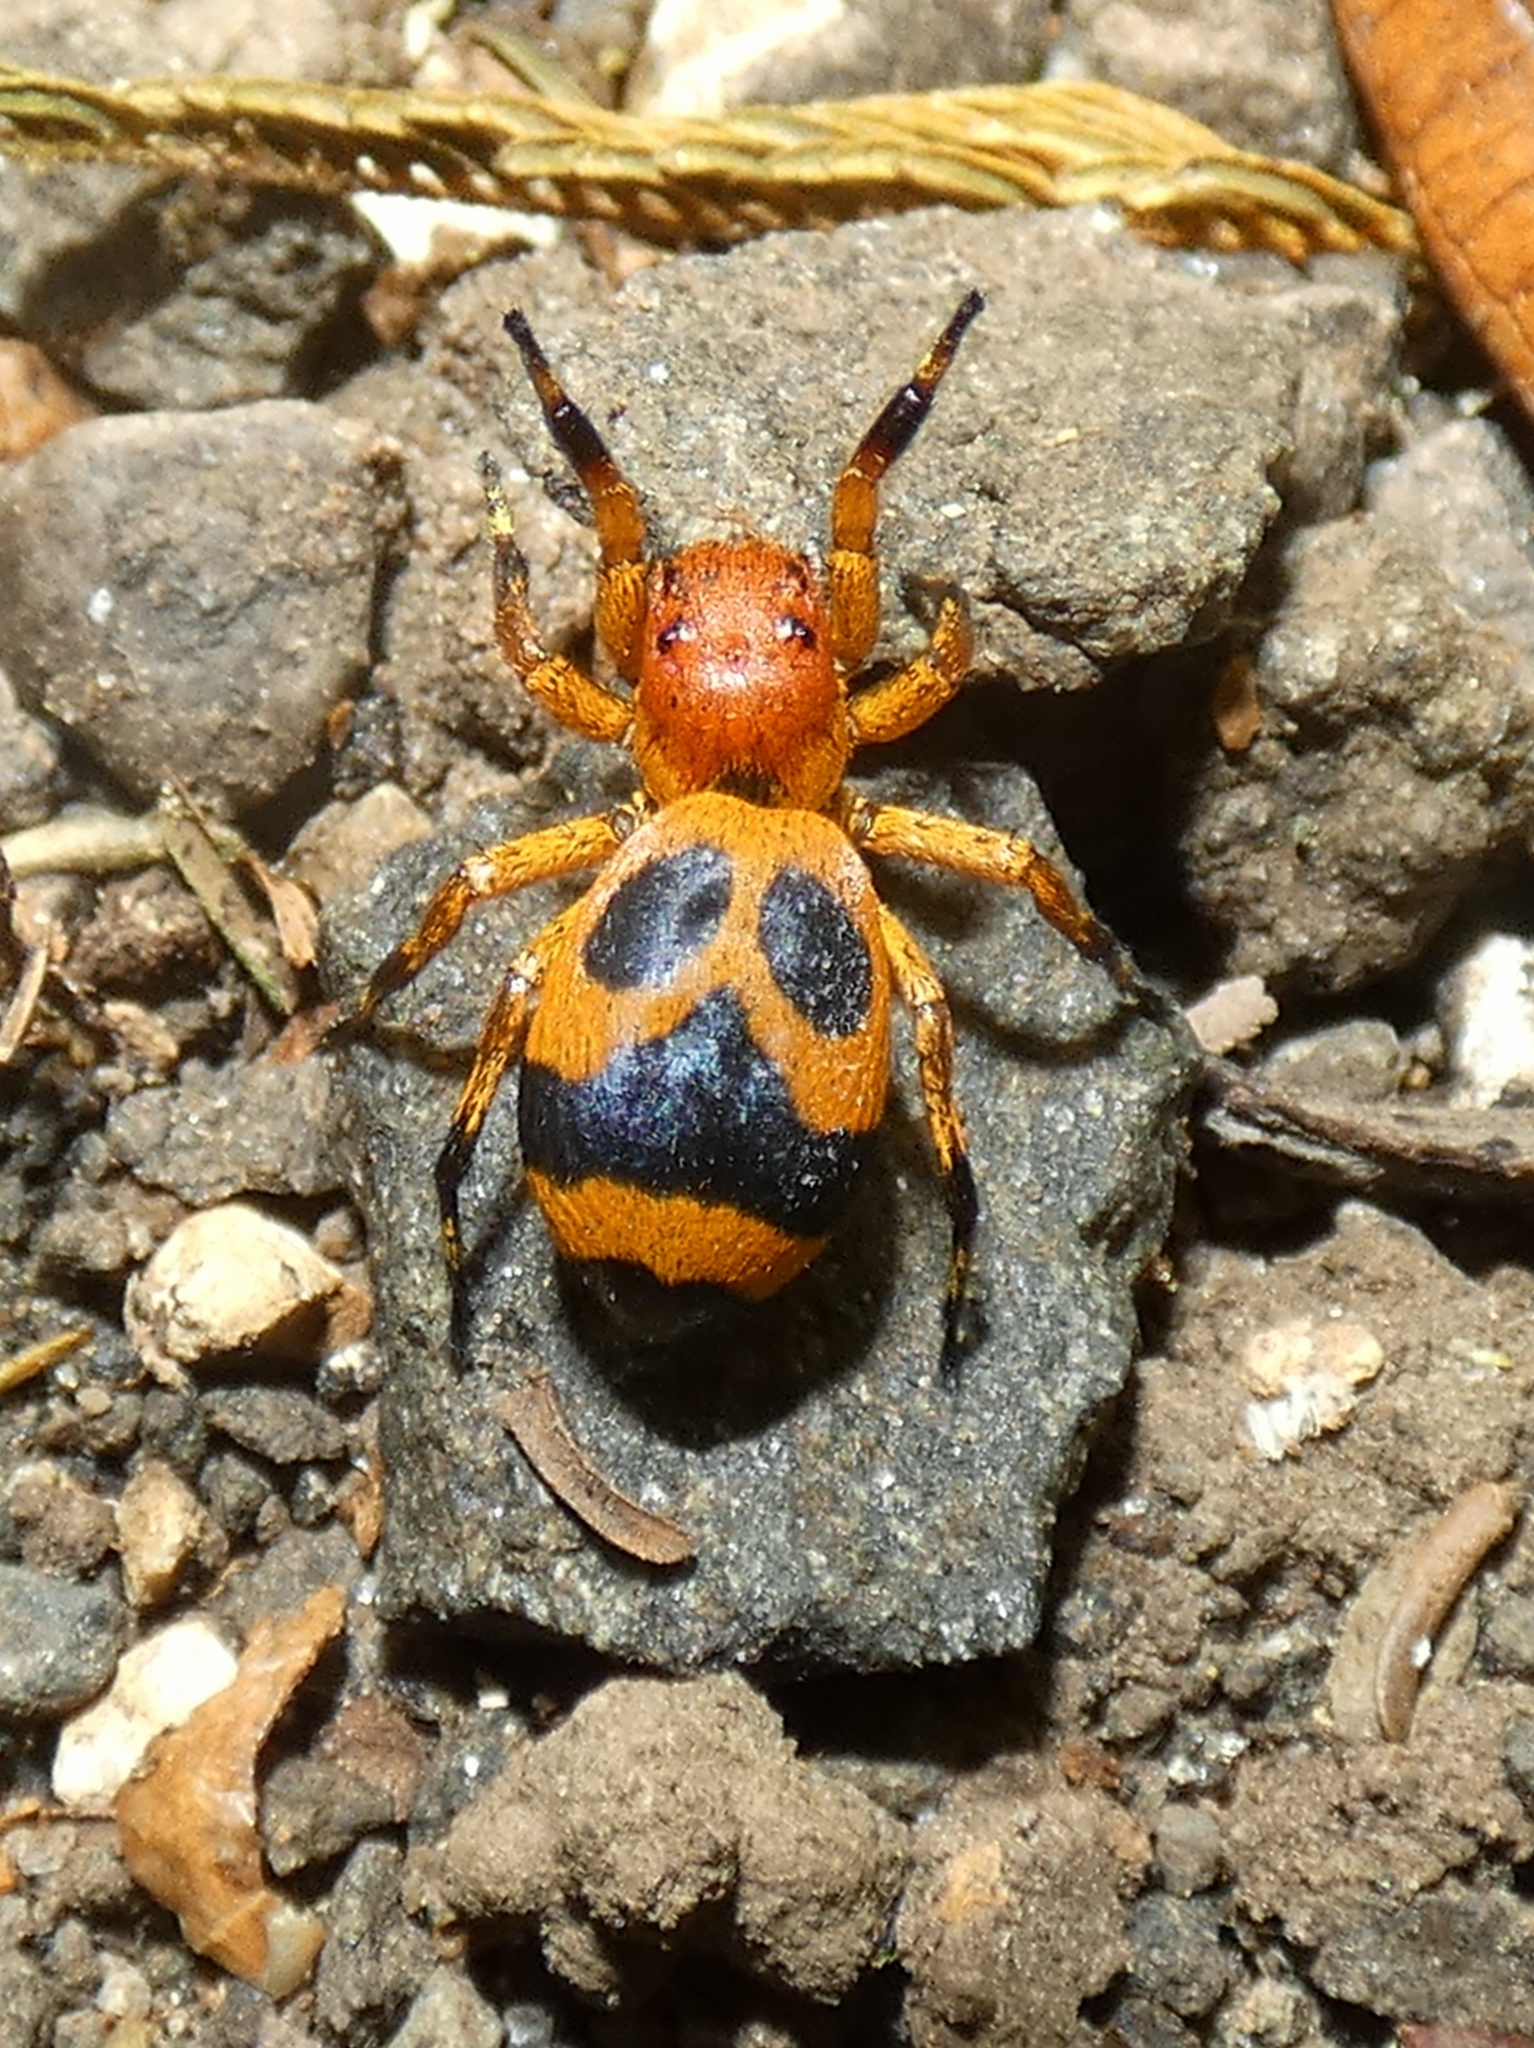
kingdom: Animalia
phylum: Arthropoda
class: Arachnida
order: Araneae
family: Salticidae
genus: Phiale
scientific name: Phiale tristis
